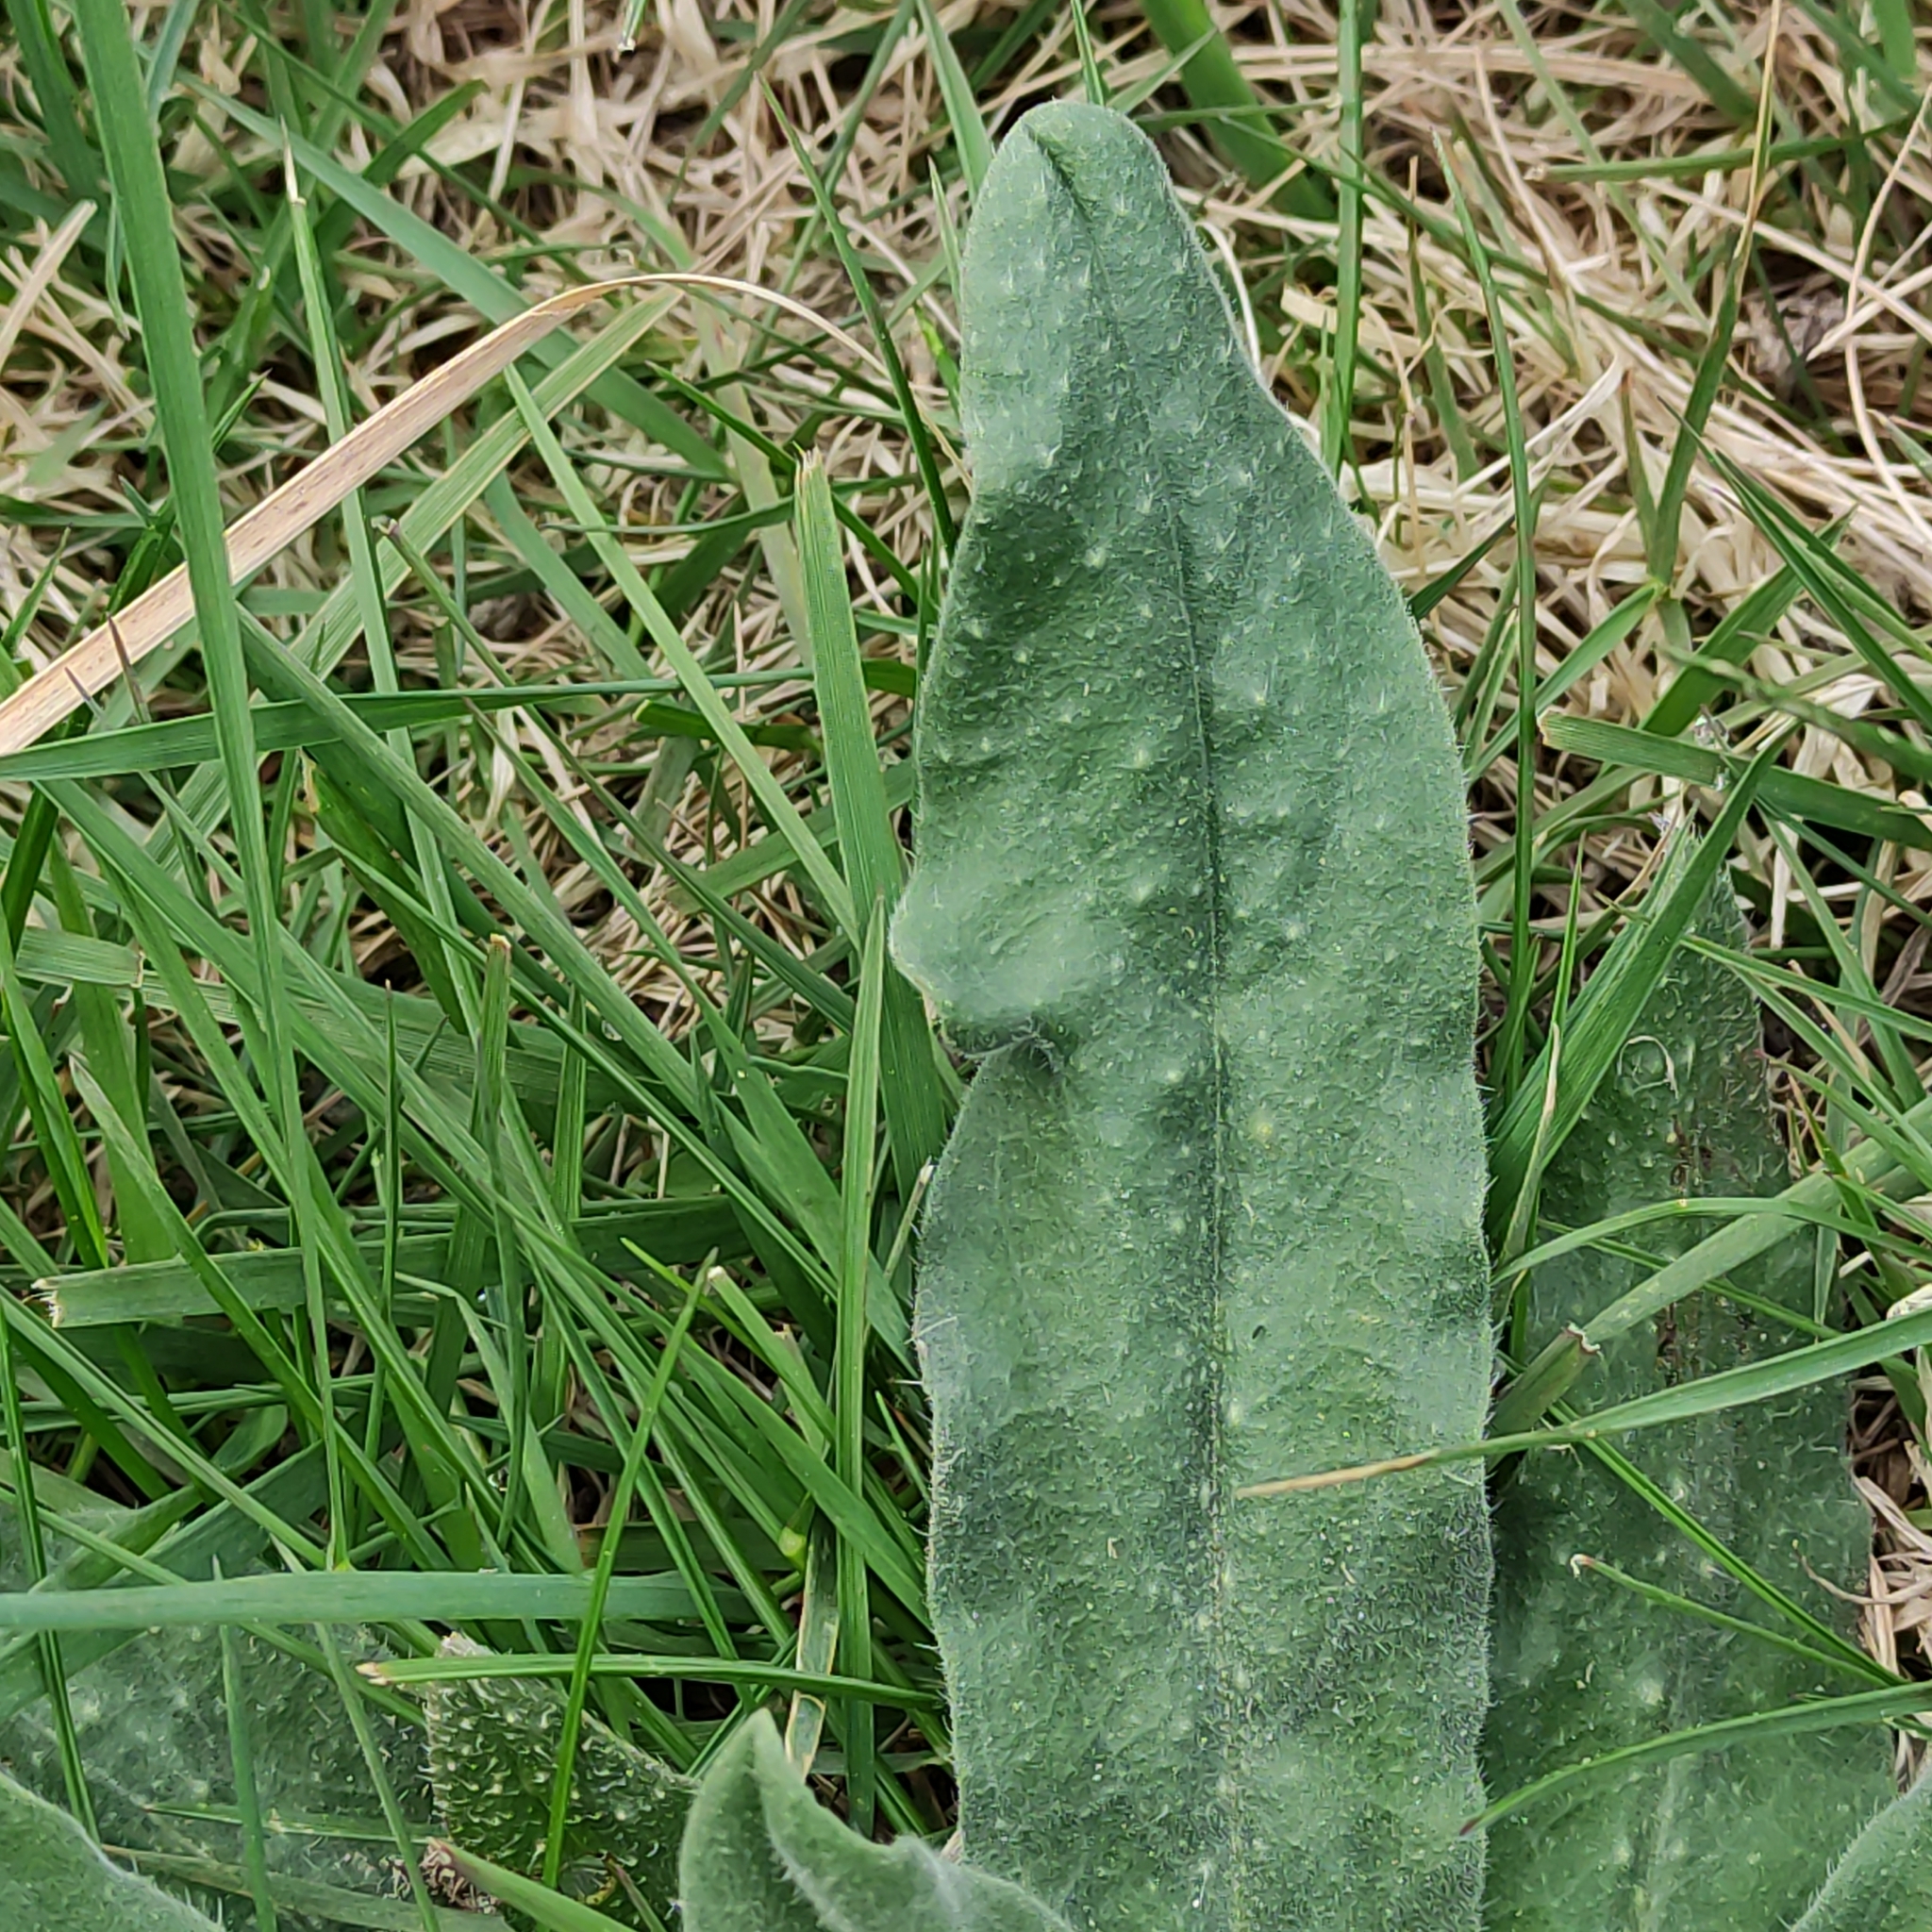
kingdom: Plantae
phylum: Tracheophyta
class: Magnoliopsida
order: Boraginales
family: Boraginaceae
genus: Echium
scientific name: Echium vulgare
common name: Common viper's bugloss
